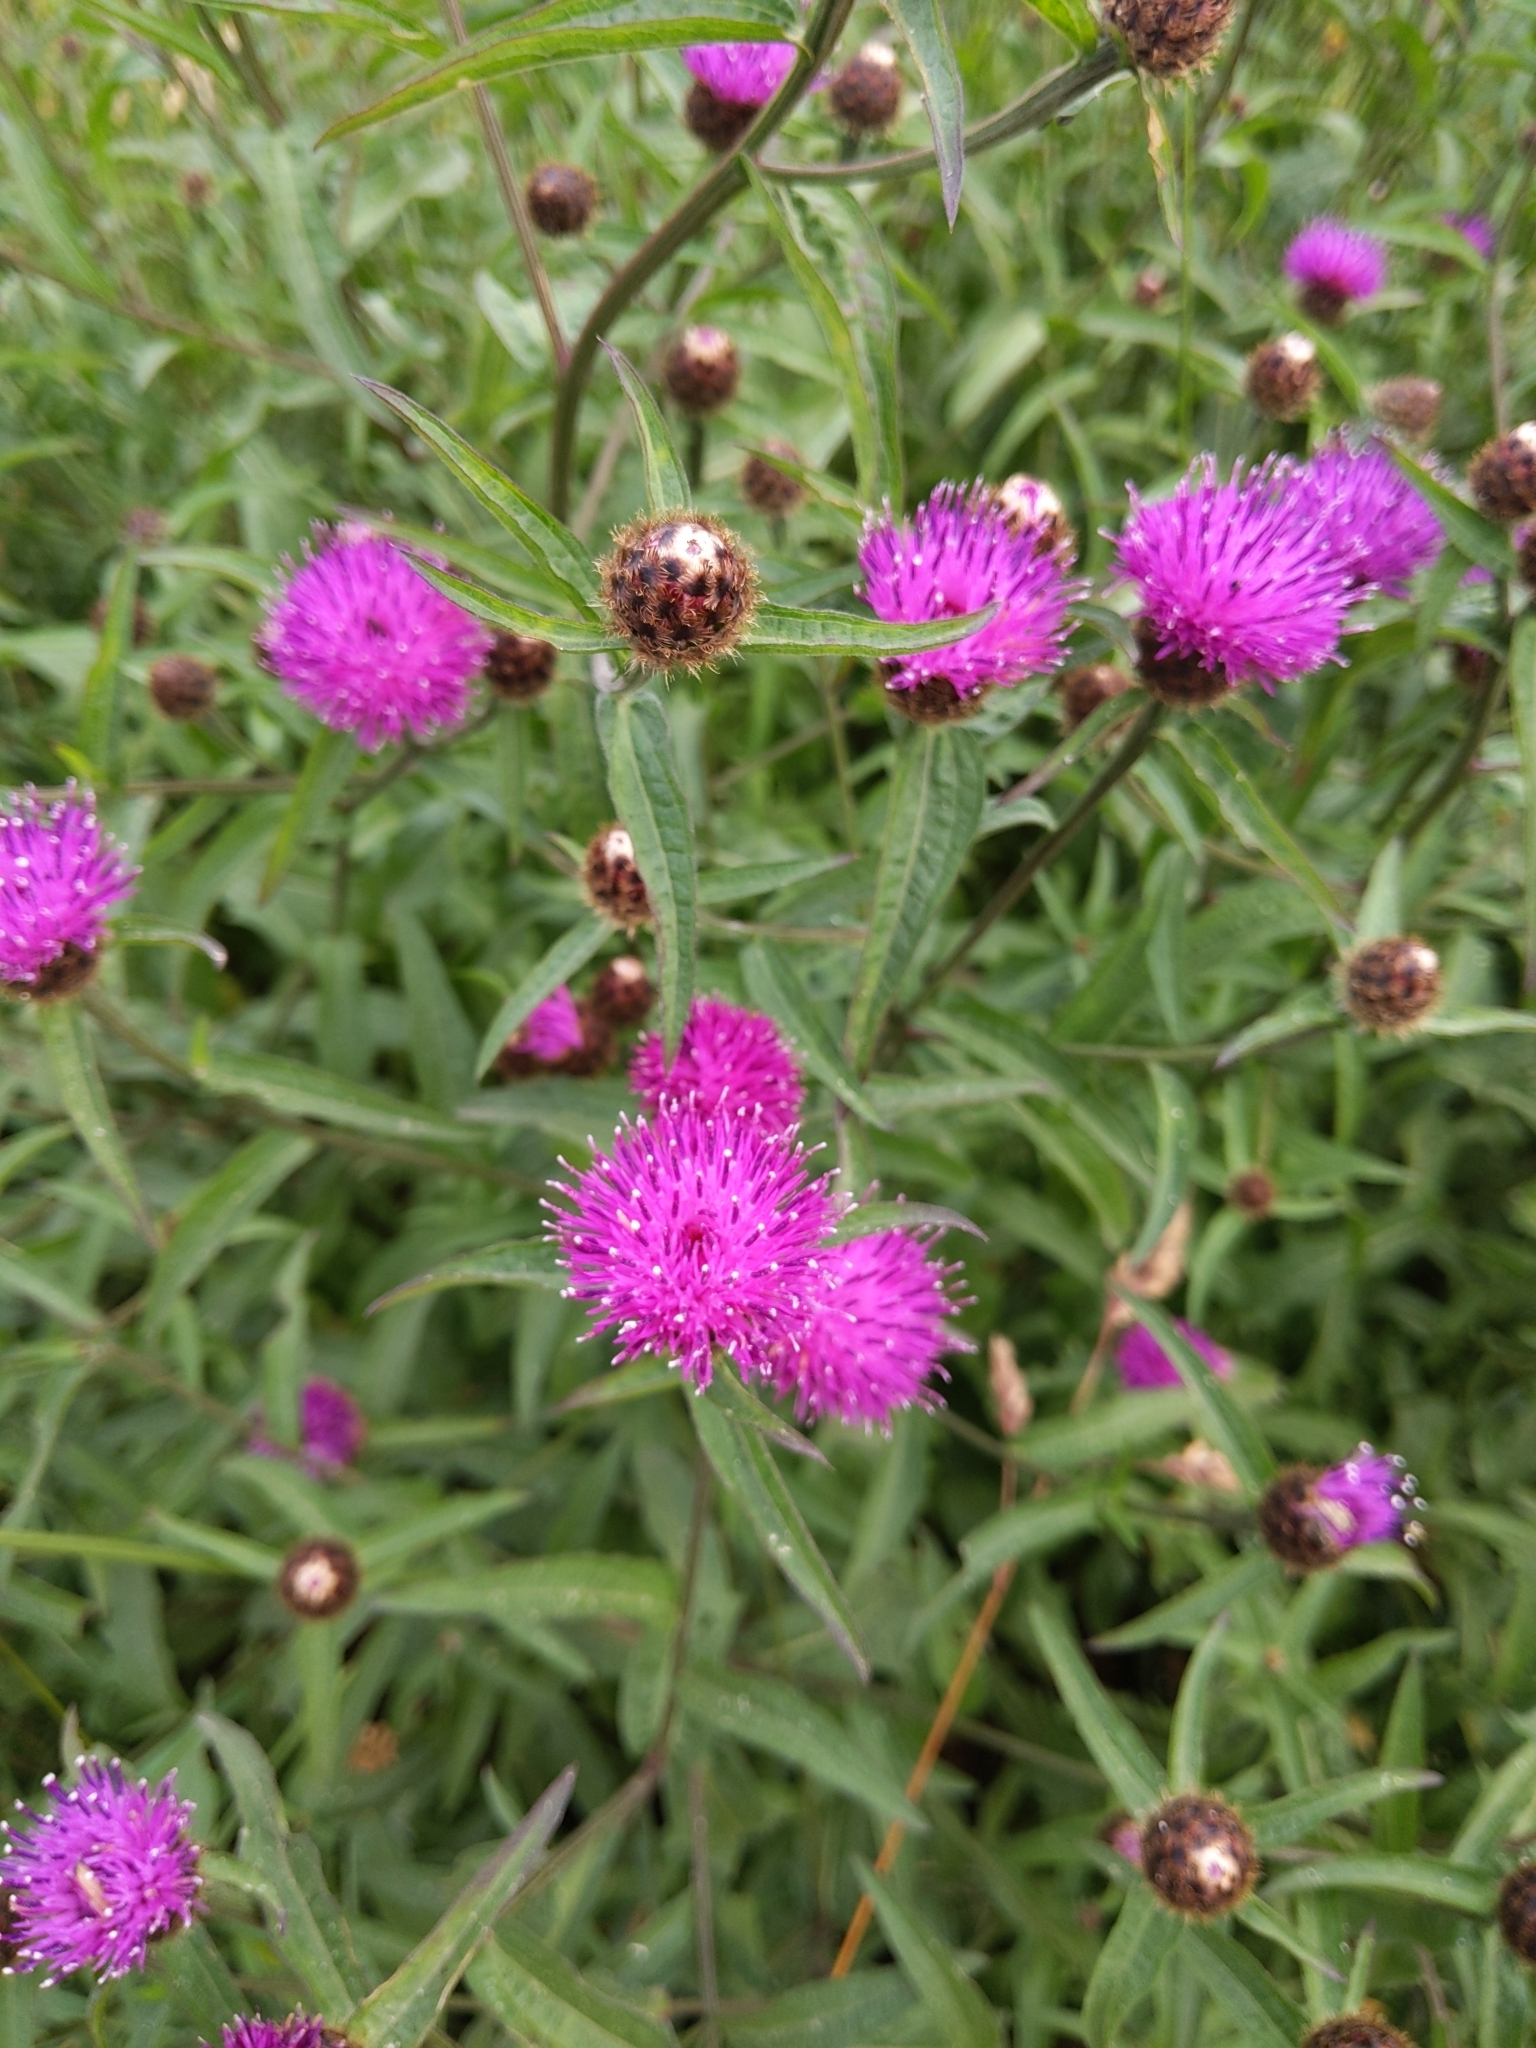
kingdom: Plantae
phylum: Tracheophyta
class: Magnoliopsida
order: Asterales
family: Asteraceae
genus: Centaurea
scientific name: Centaurea nigra
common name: Lesser knapweed
